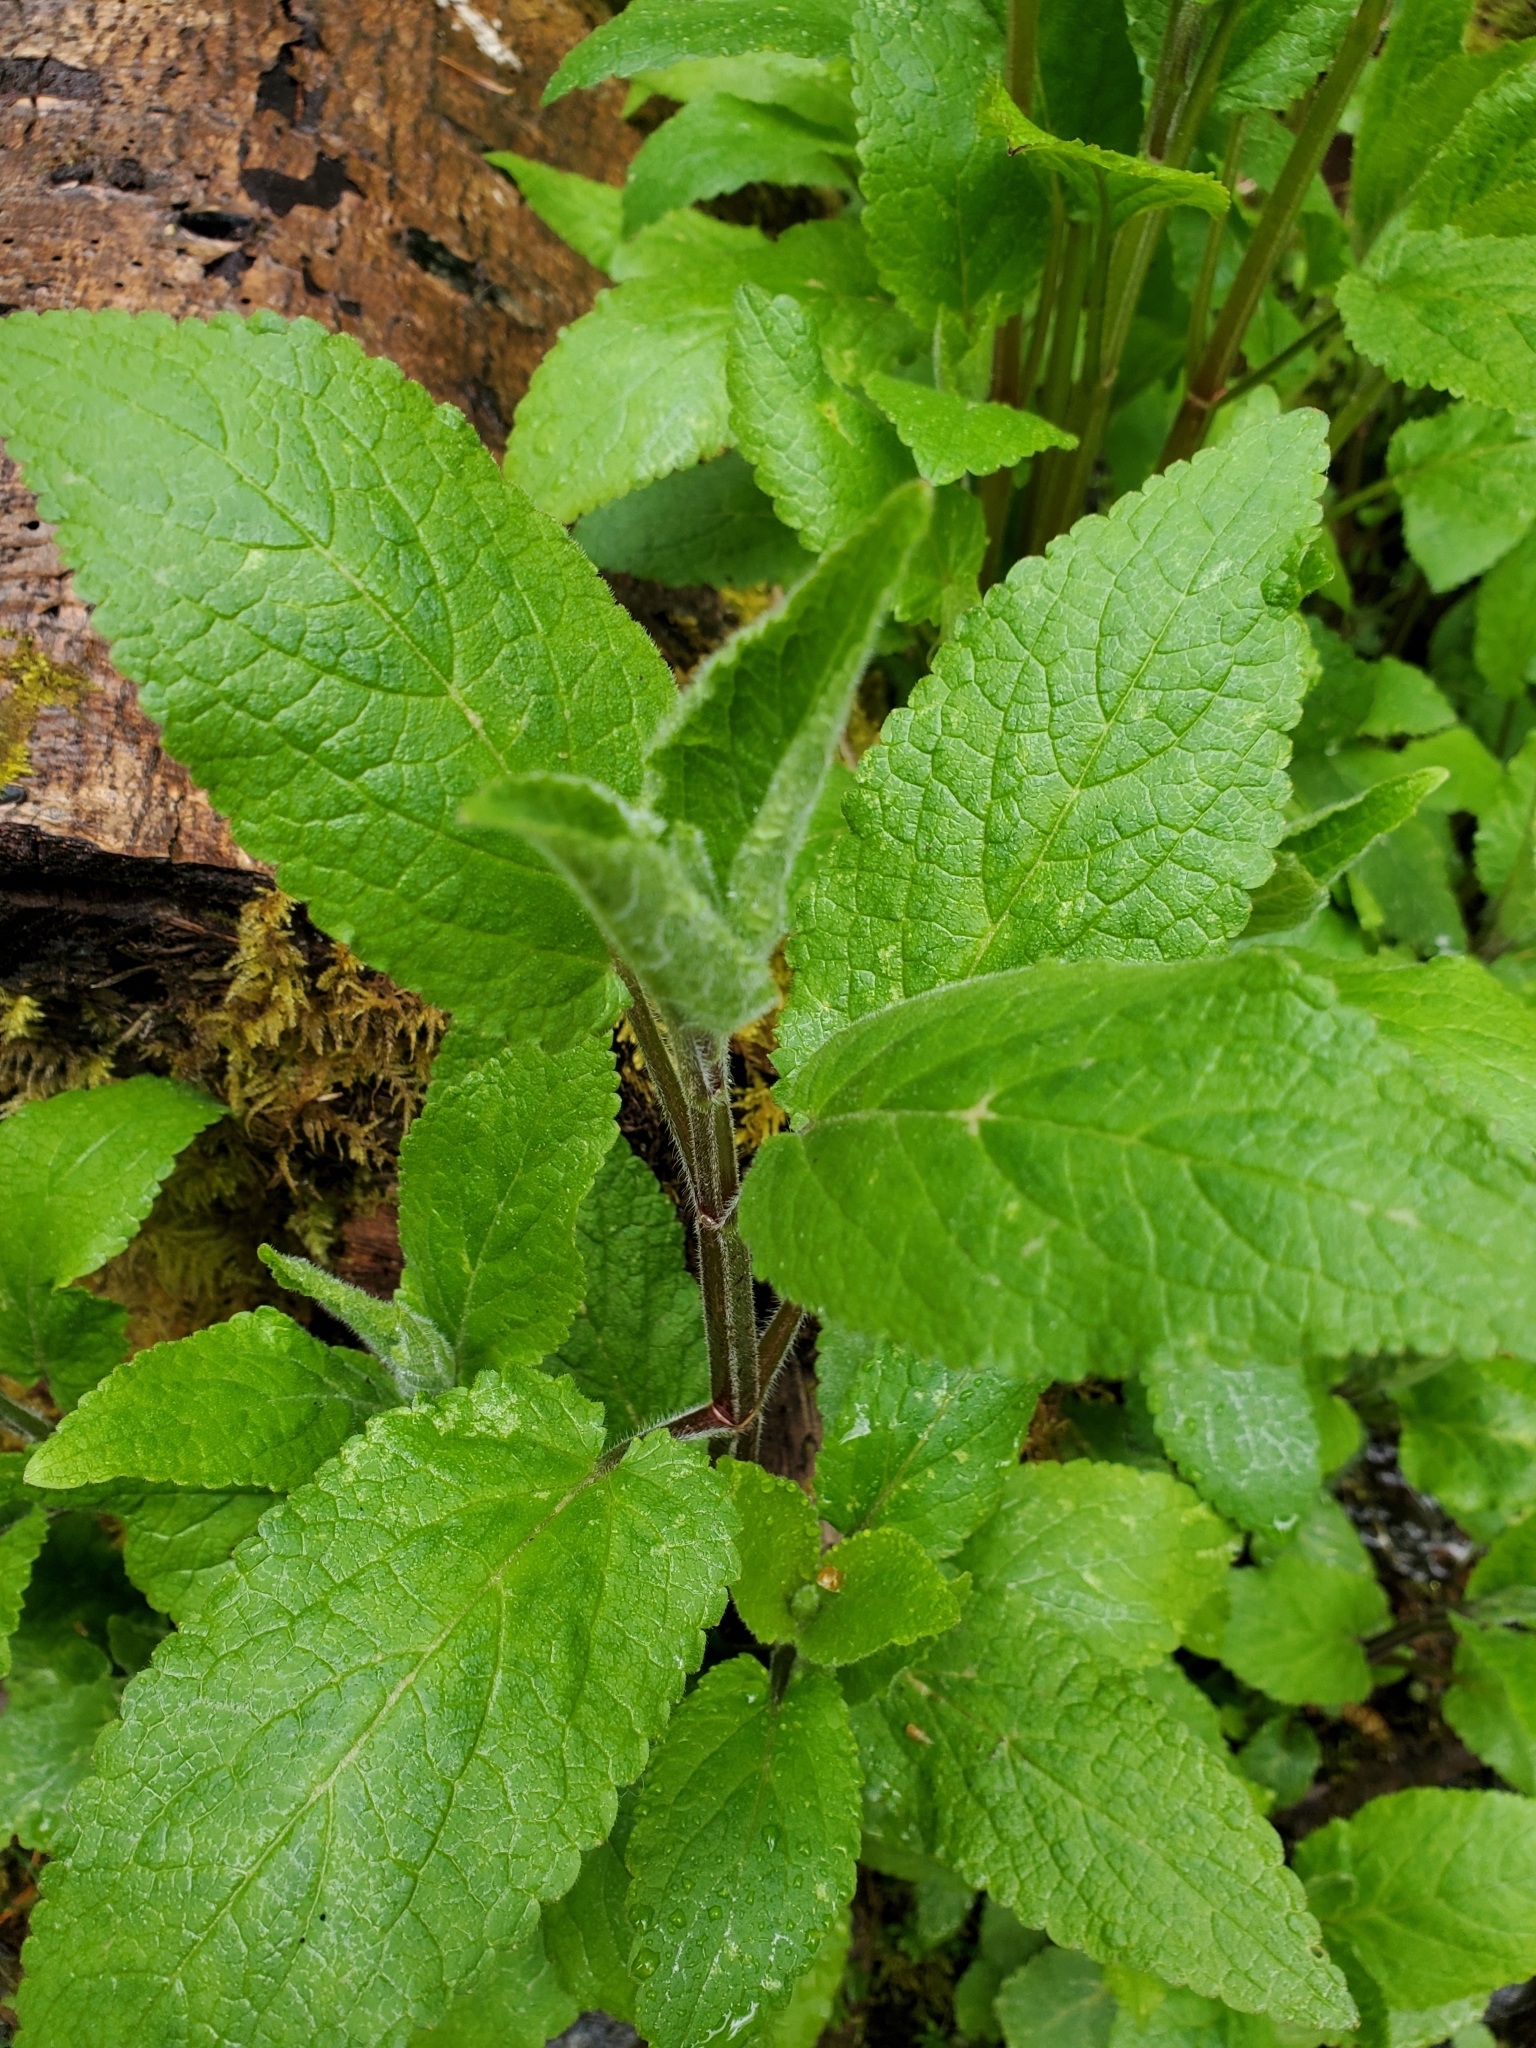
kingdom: Plantae
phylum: Tracheophyta
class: Magnoliopsida
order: Lamiales
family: Lamiaceae
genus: Stachys
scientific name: Stachys chamissonis
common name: Coastal hedge-nettle
